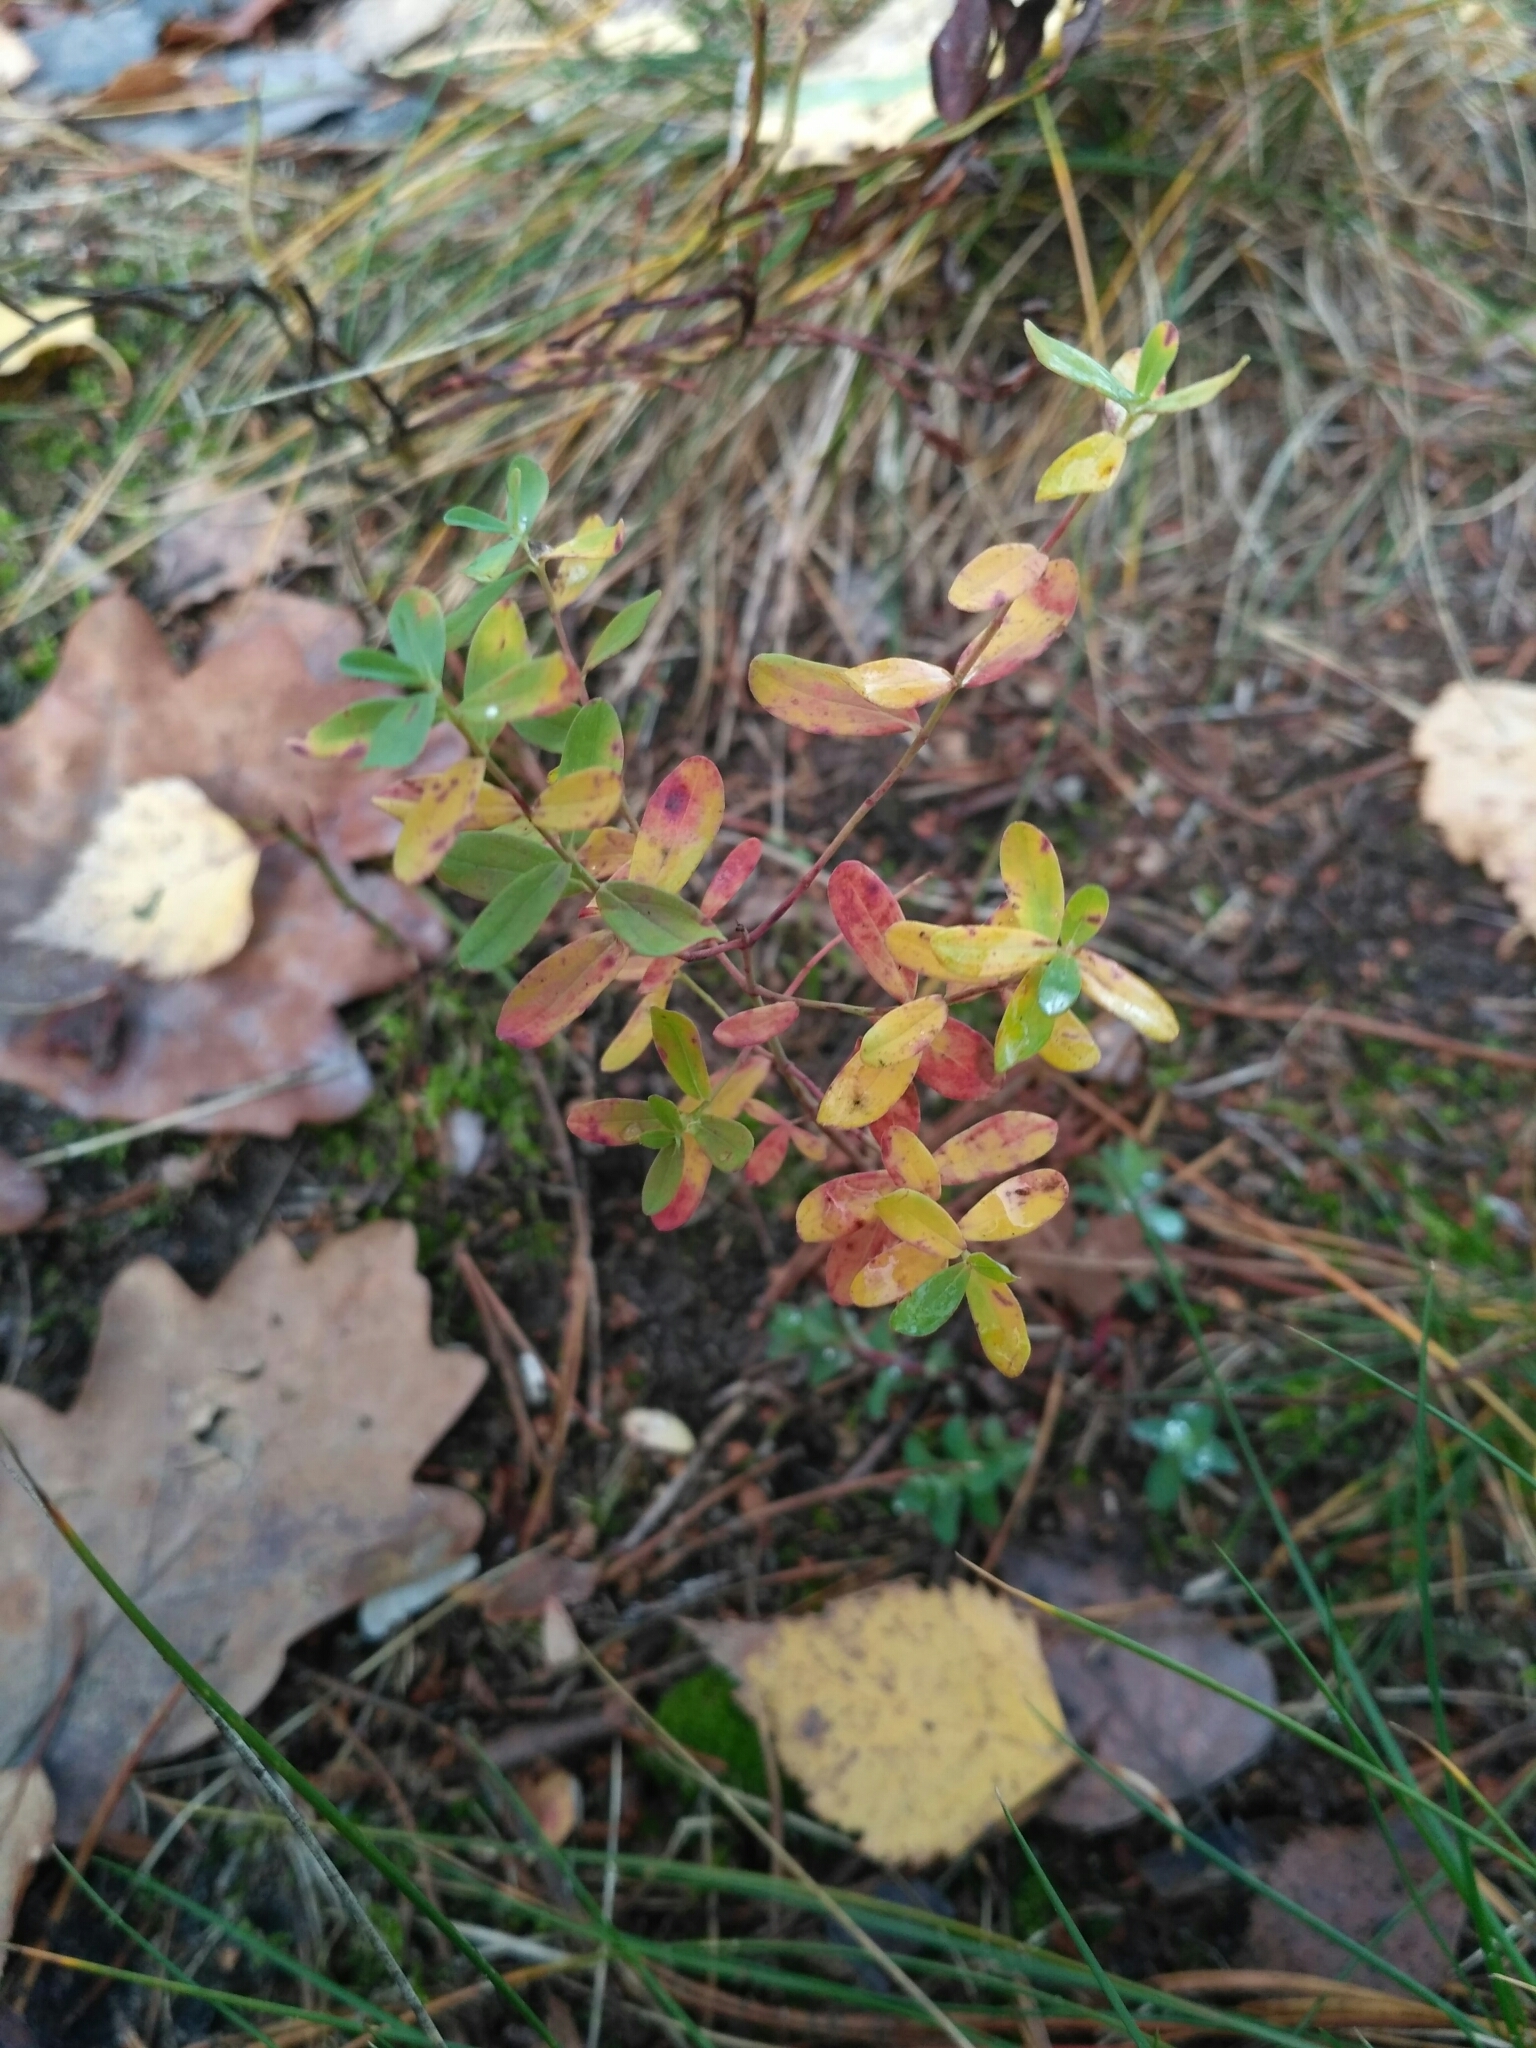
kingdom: Plantae
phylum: Tracheophyta
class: Magnoliopsida
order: Ericales
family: Ericaceae
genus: Vaccinium
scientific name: Vaccinium uliginosum
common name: Bog bilberry
